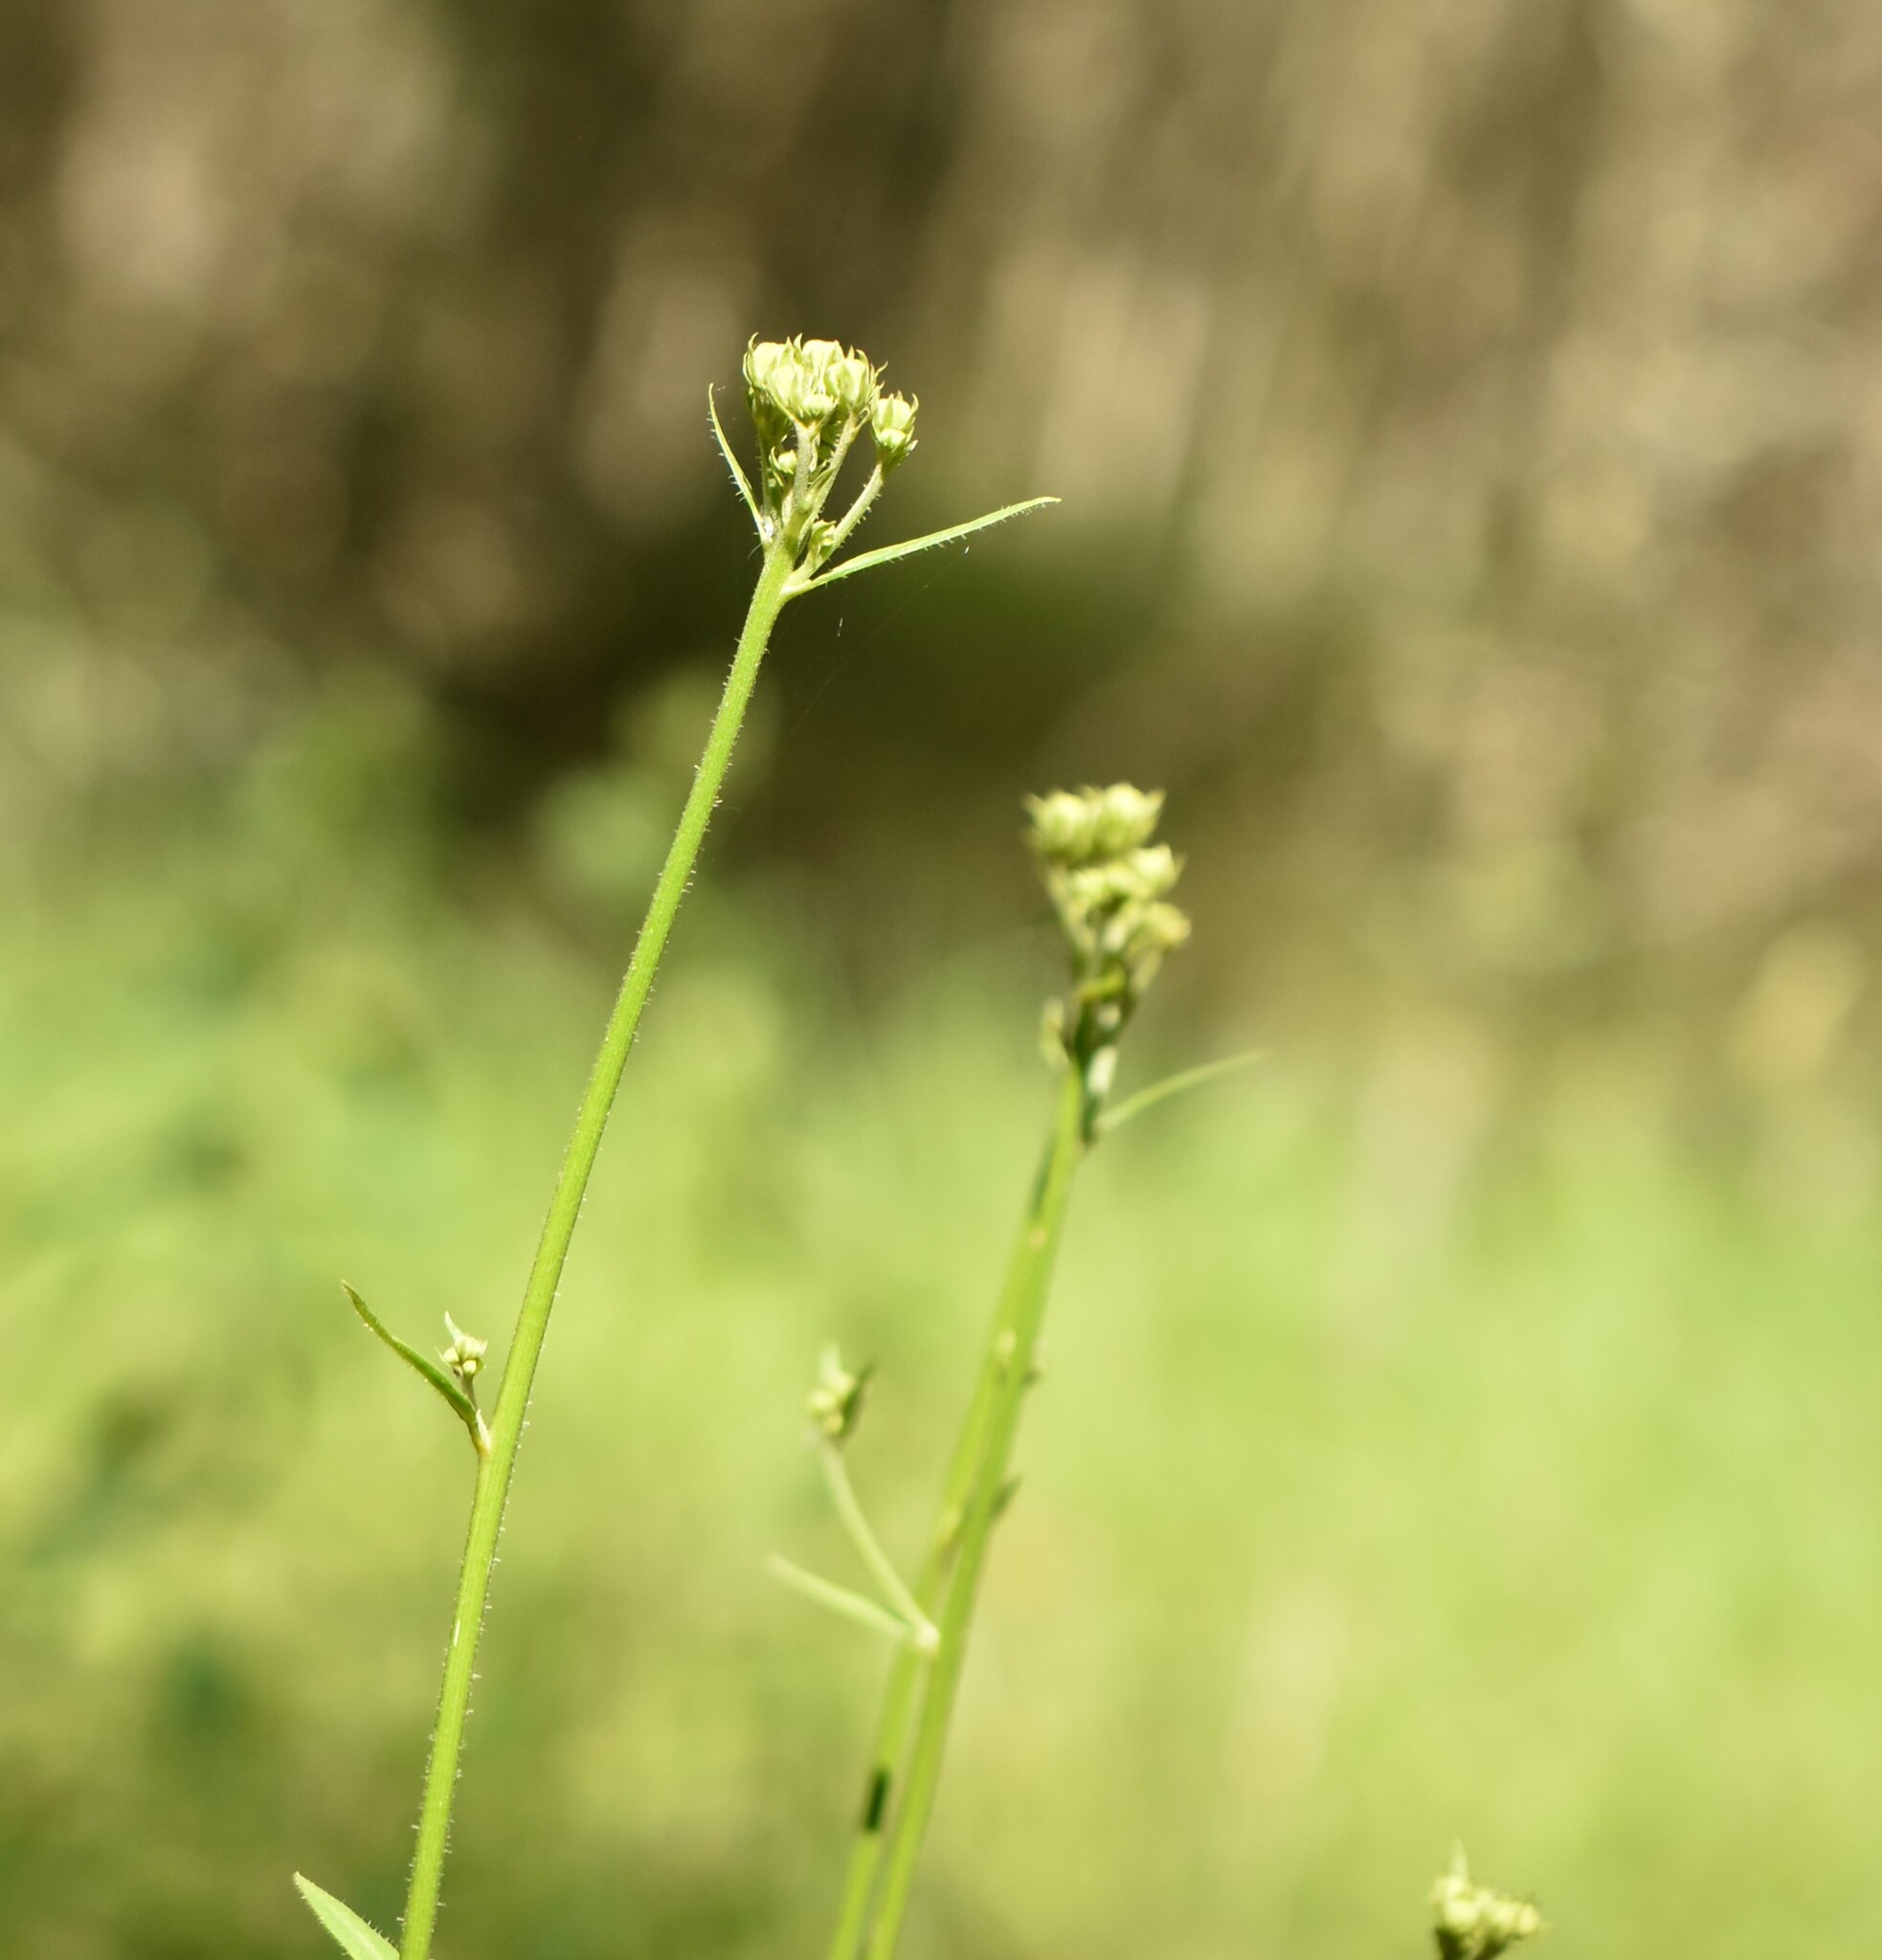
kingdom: Plantae
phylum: Tracheophyta
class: Magnoliopsida
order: Asterales
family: Asteraceae
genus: Picris
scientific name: Picris hieracioides
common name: Hawkweed oxtongue
